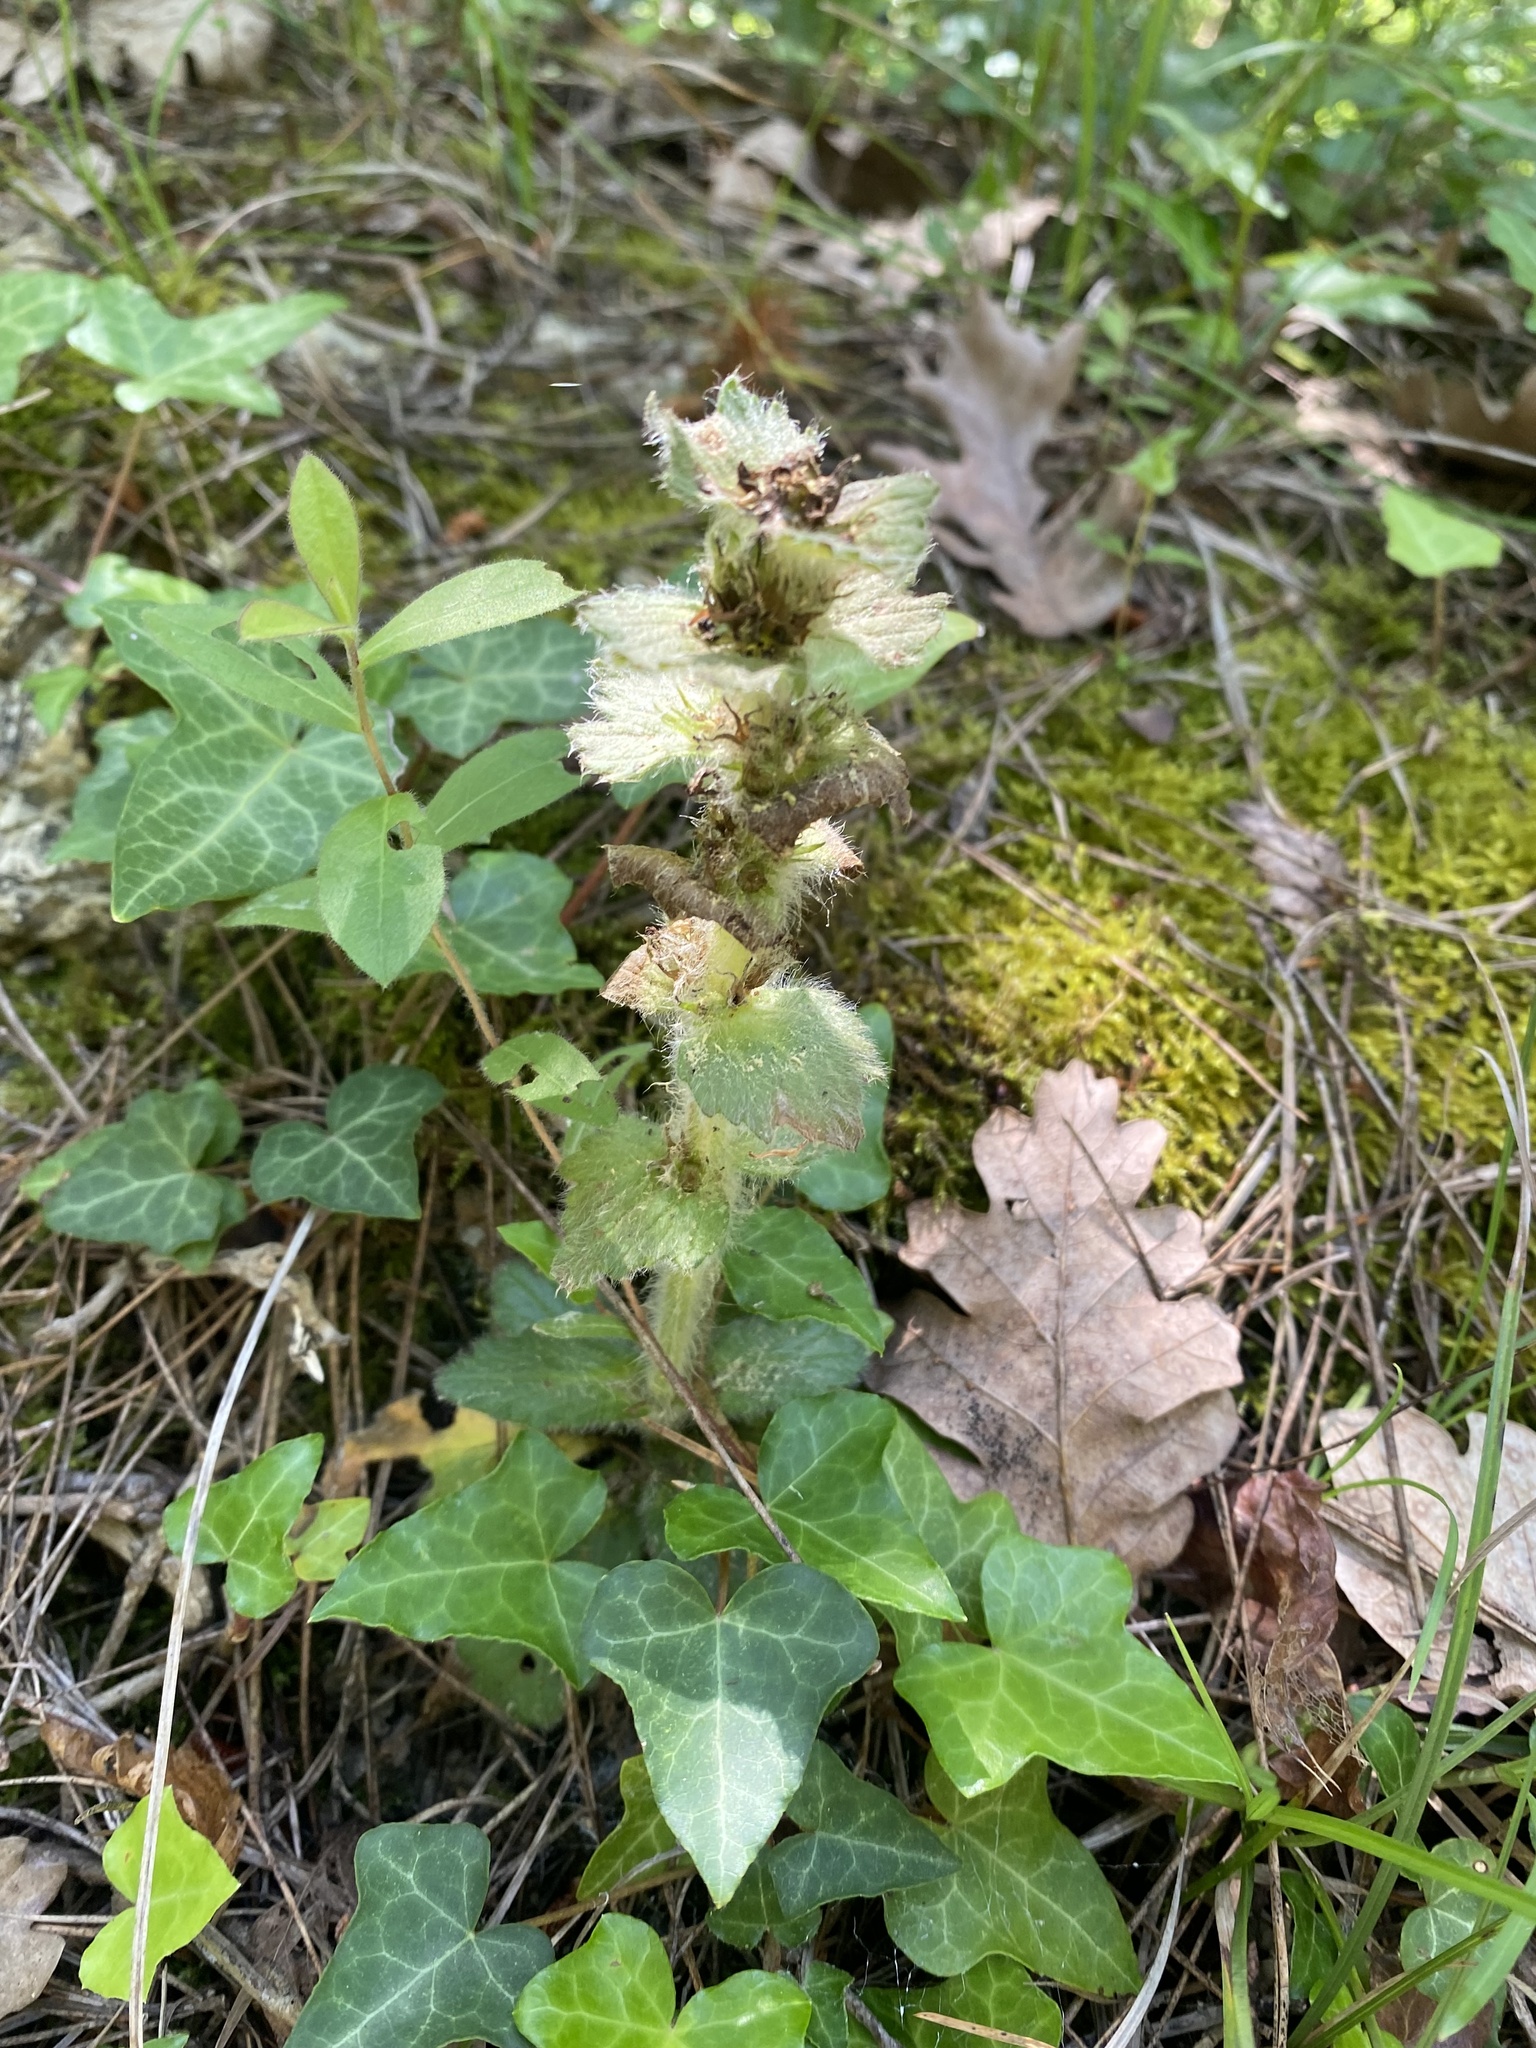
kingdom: Plantae
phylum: Tracheophyta
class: Magnoliopsida
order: Lamiales
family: Lamiaceae
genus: Ajuga
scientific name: Ajuga orientalis
